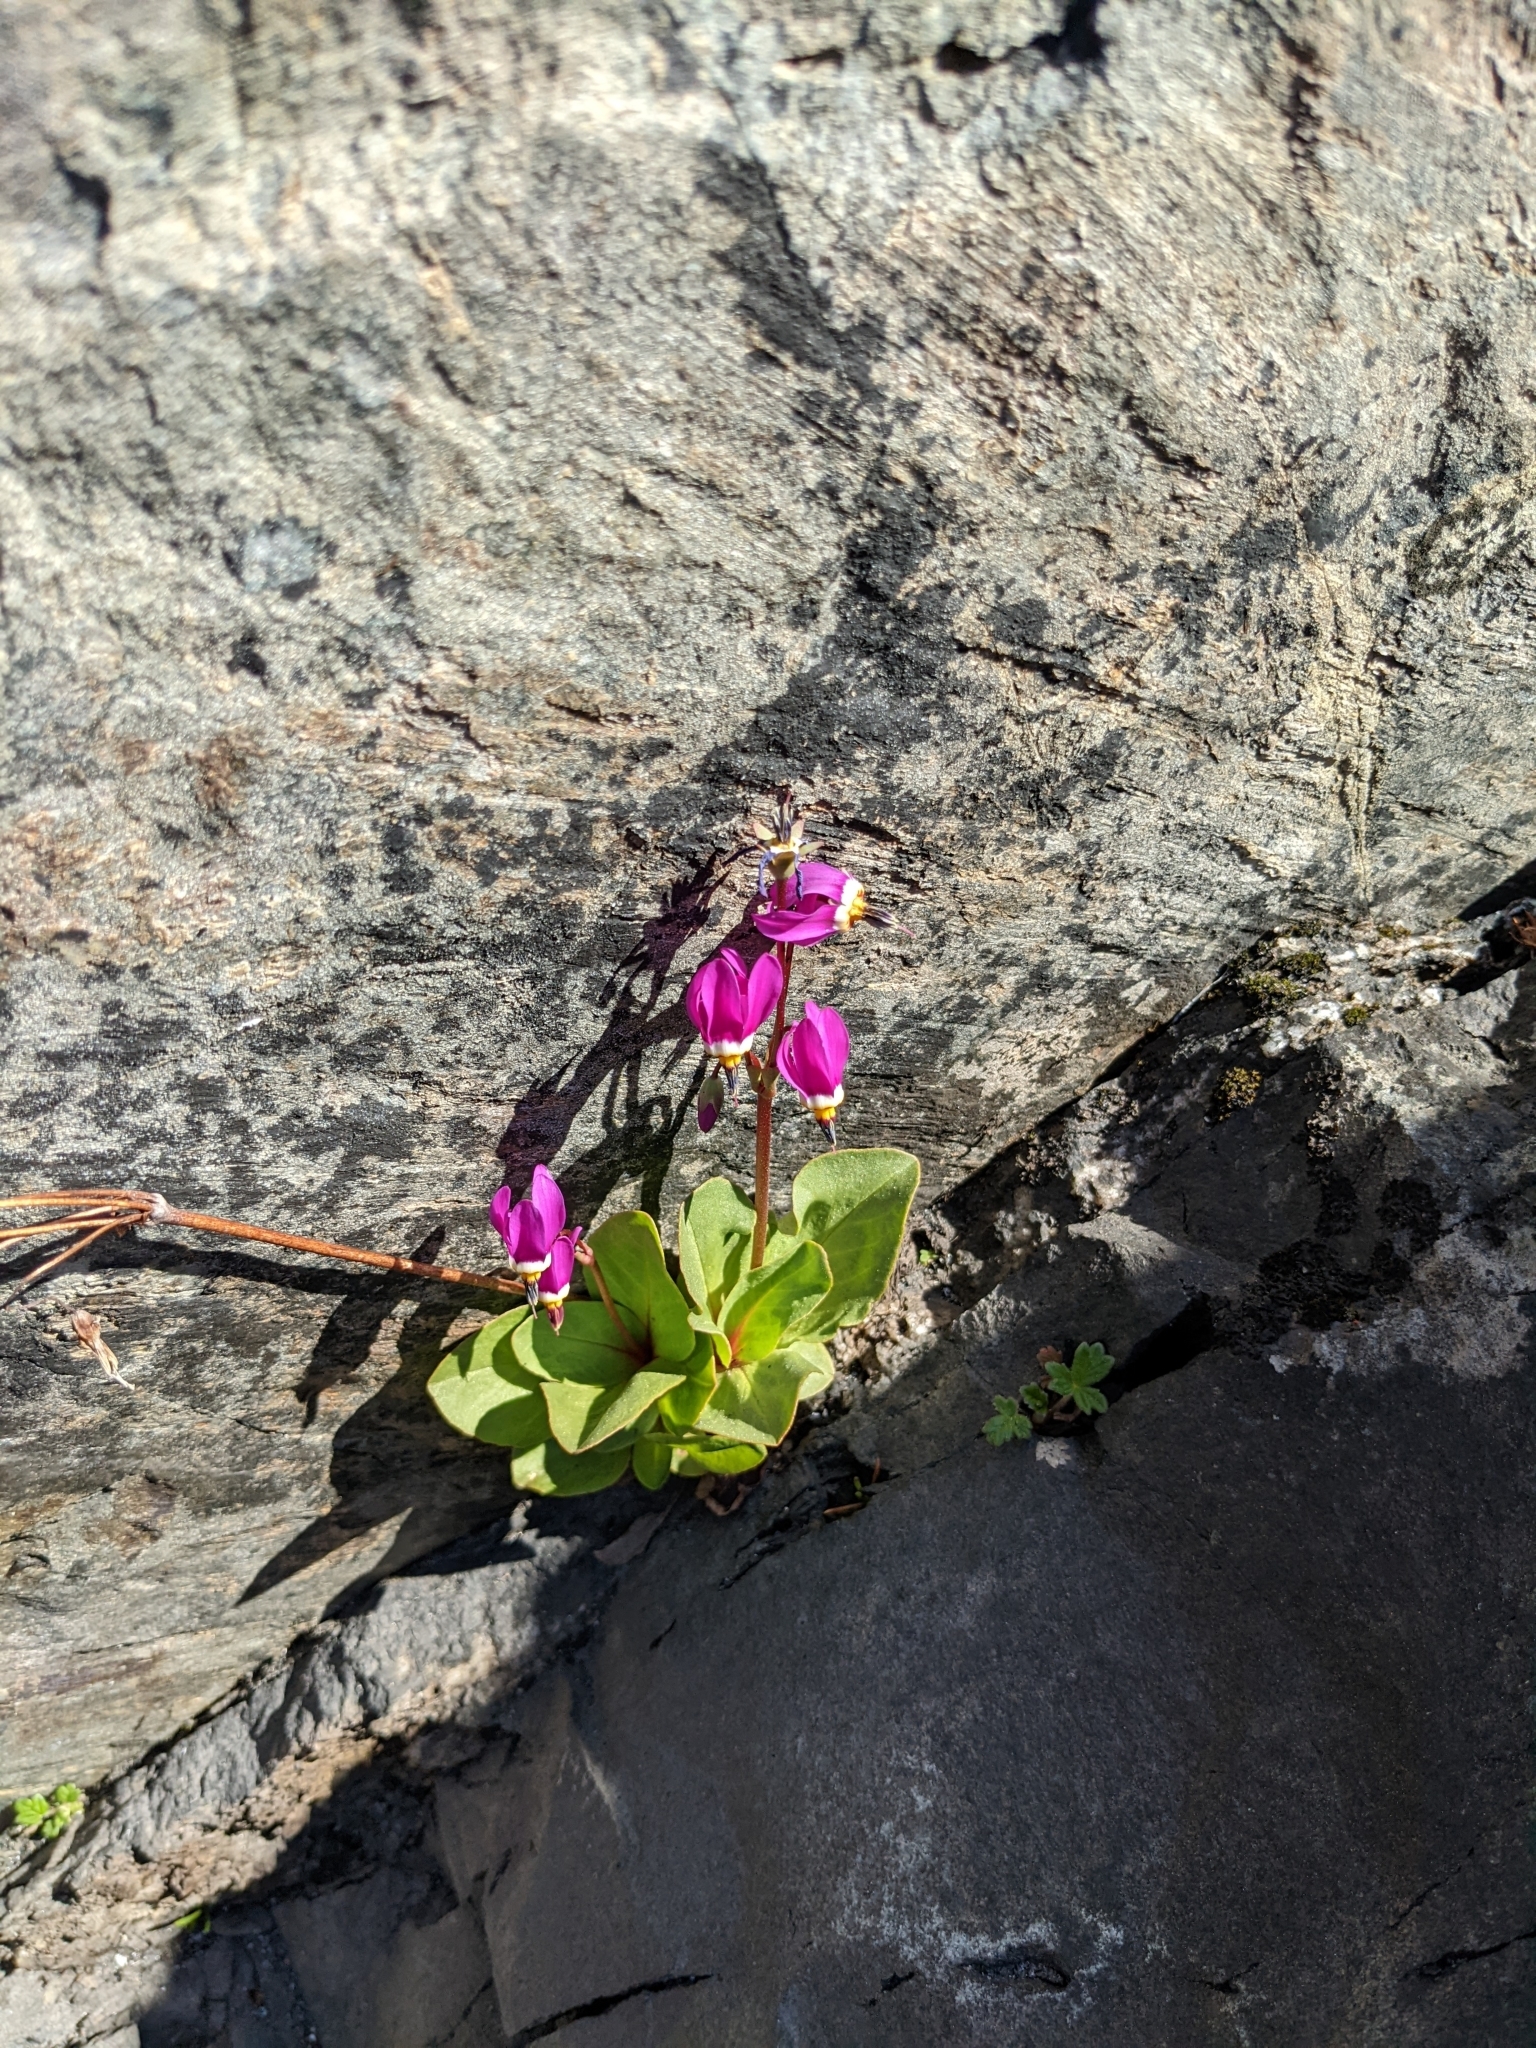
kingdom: Plantae
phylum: Tracheophyta
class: Magnoliopsida
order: Ericales
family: Primulaceae
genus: Dodecatheon
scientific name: Dodecatheon pulchellum
